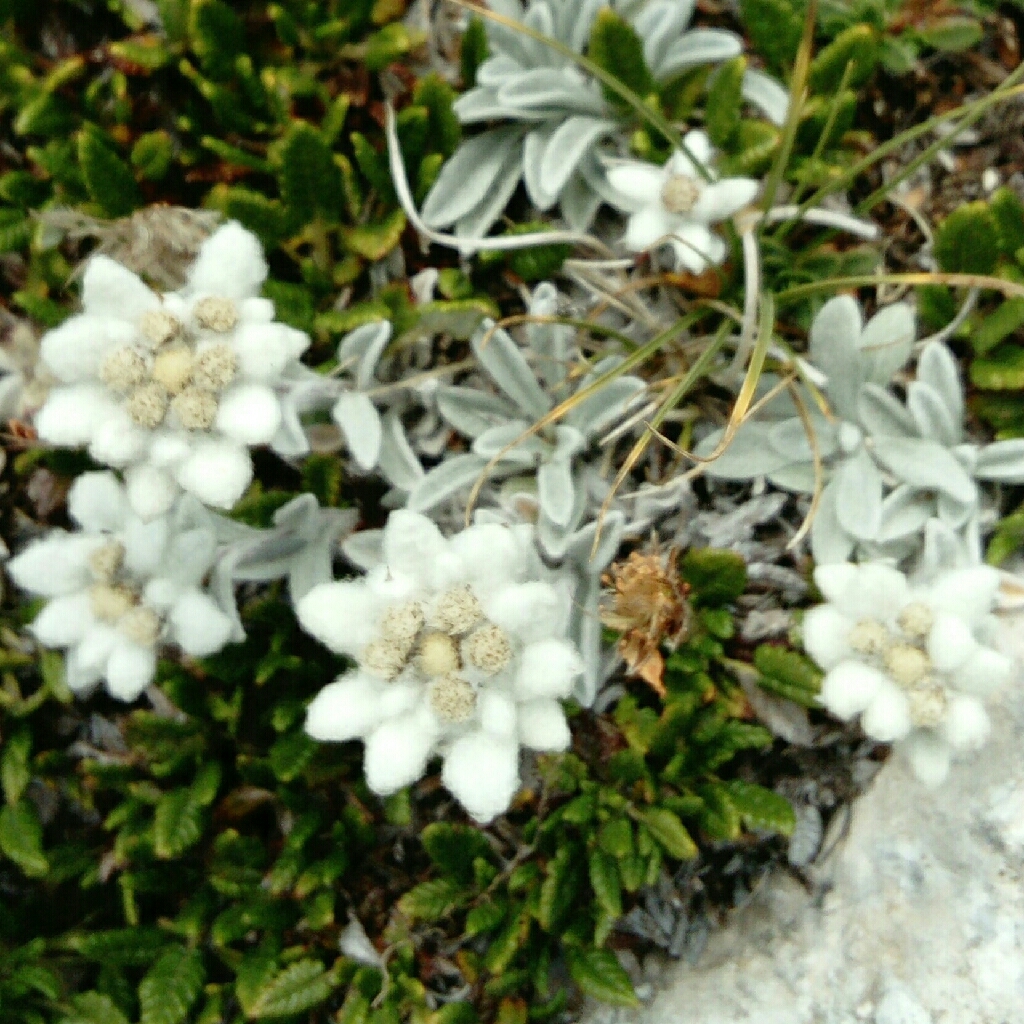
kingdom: Plantae
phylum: Tracheophyta
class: Magnoliopsida
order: Asterales
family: Asteraceae
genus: Leontopodium
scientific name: Leontopodium nivale
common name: Edelweiss
